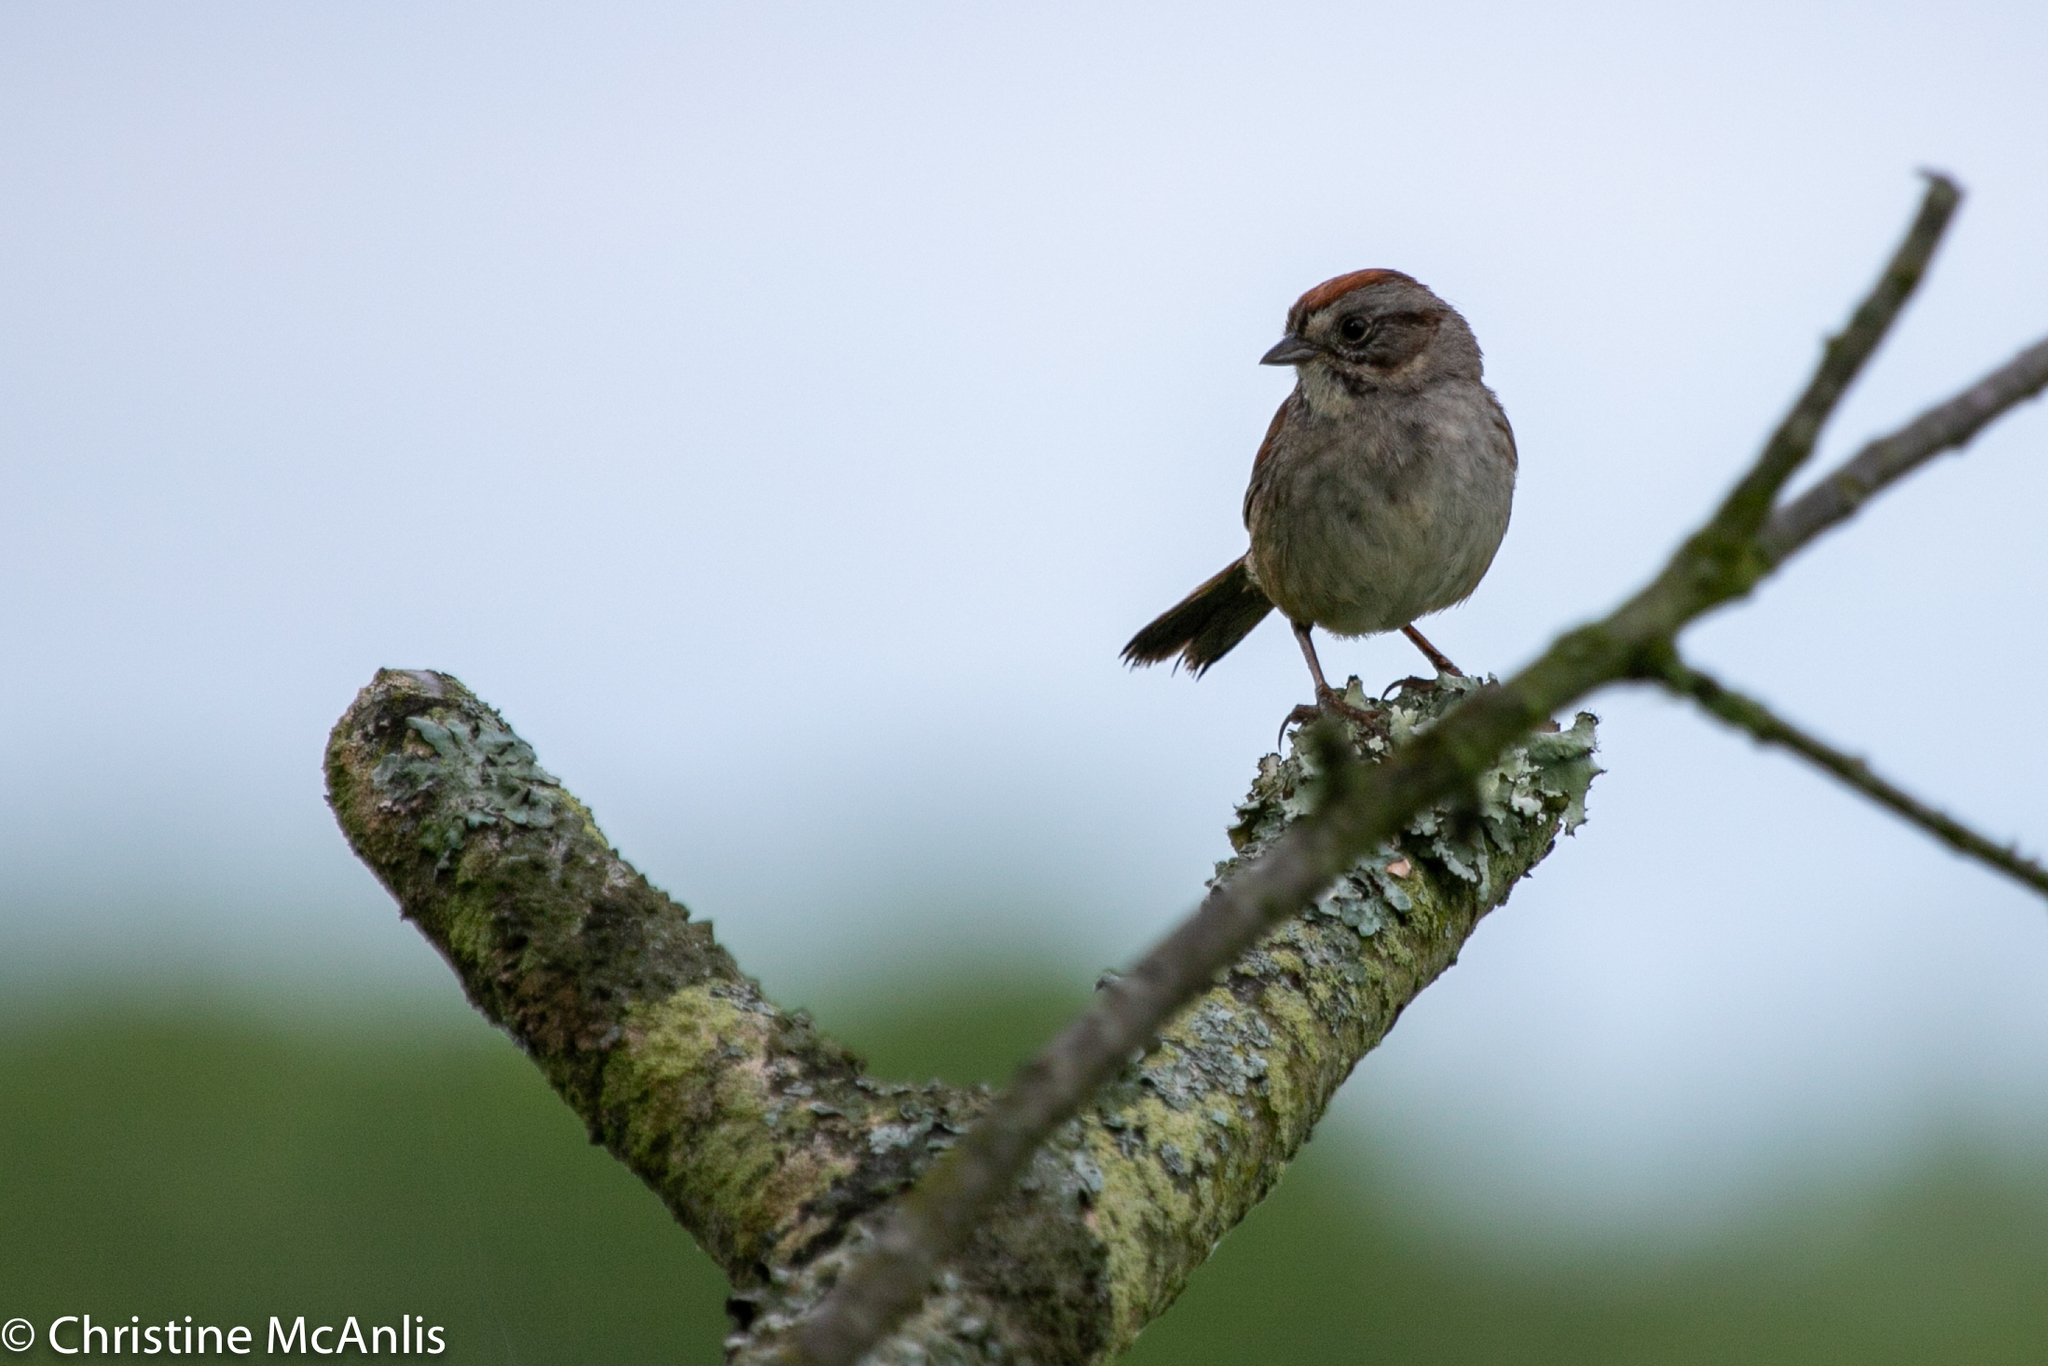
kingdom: Animalia
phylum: Chordata
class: Aves
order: Passeriformes
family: Passerellidae
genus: Melospiza
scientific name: Melospiza georgiana
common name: Swamp sparrow
